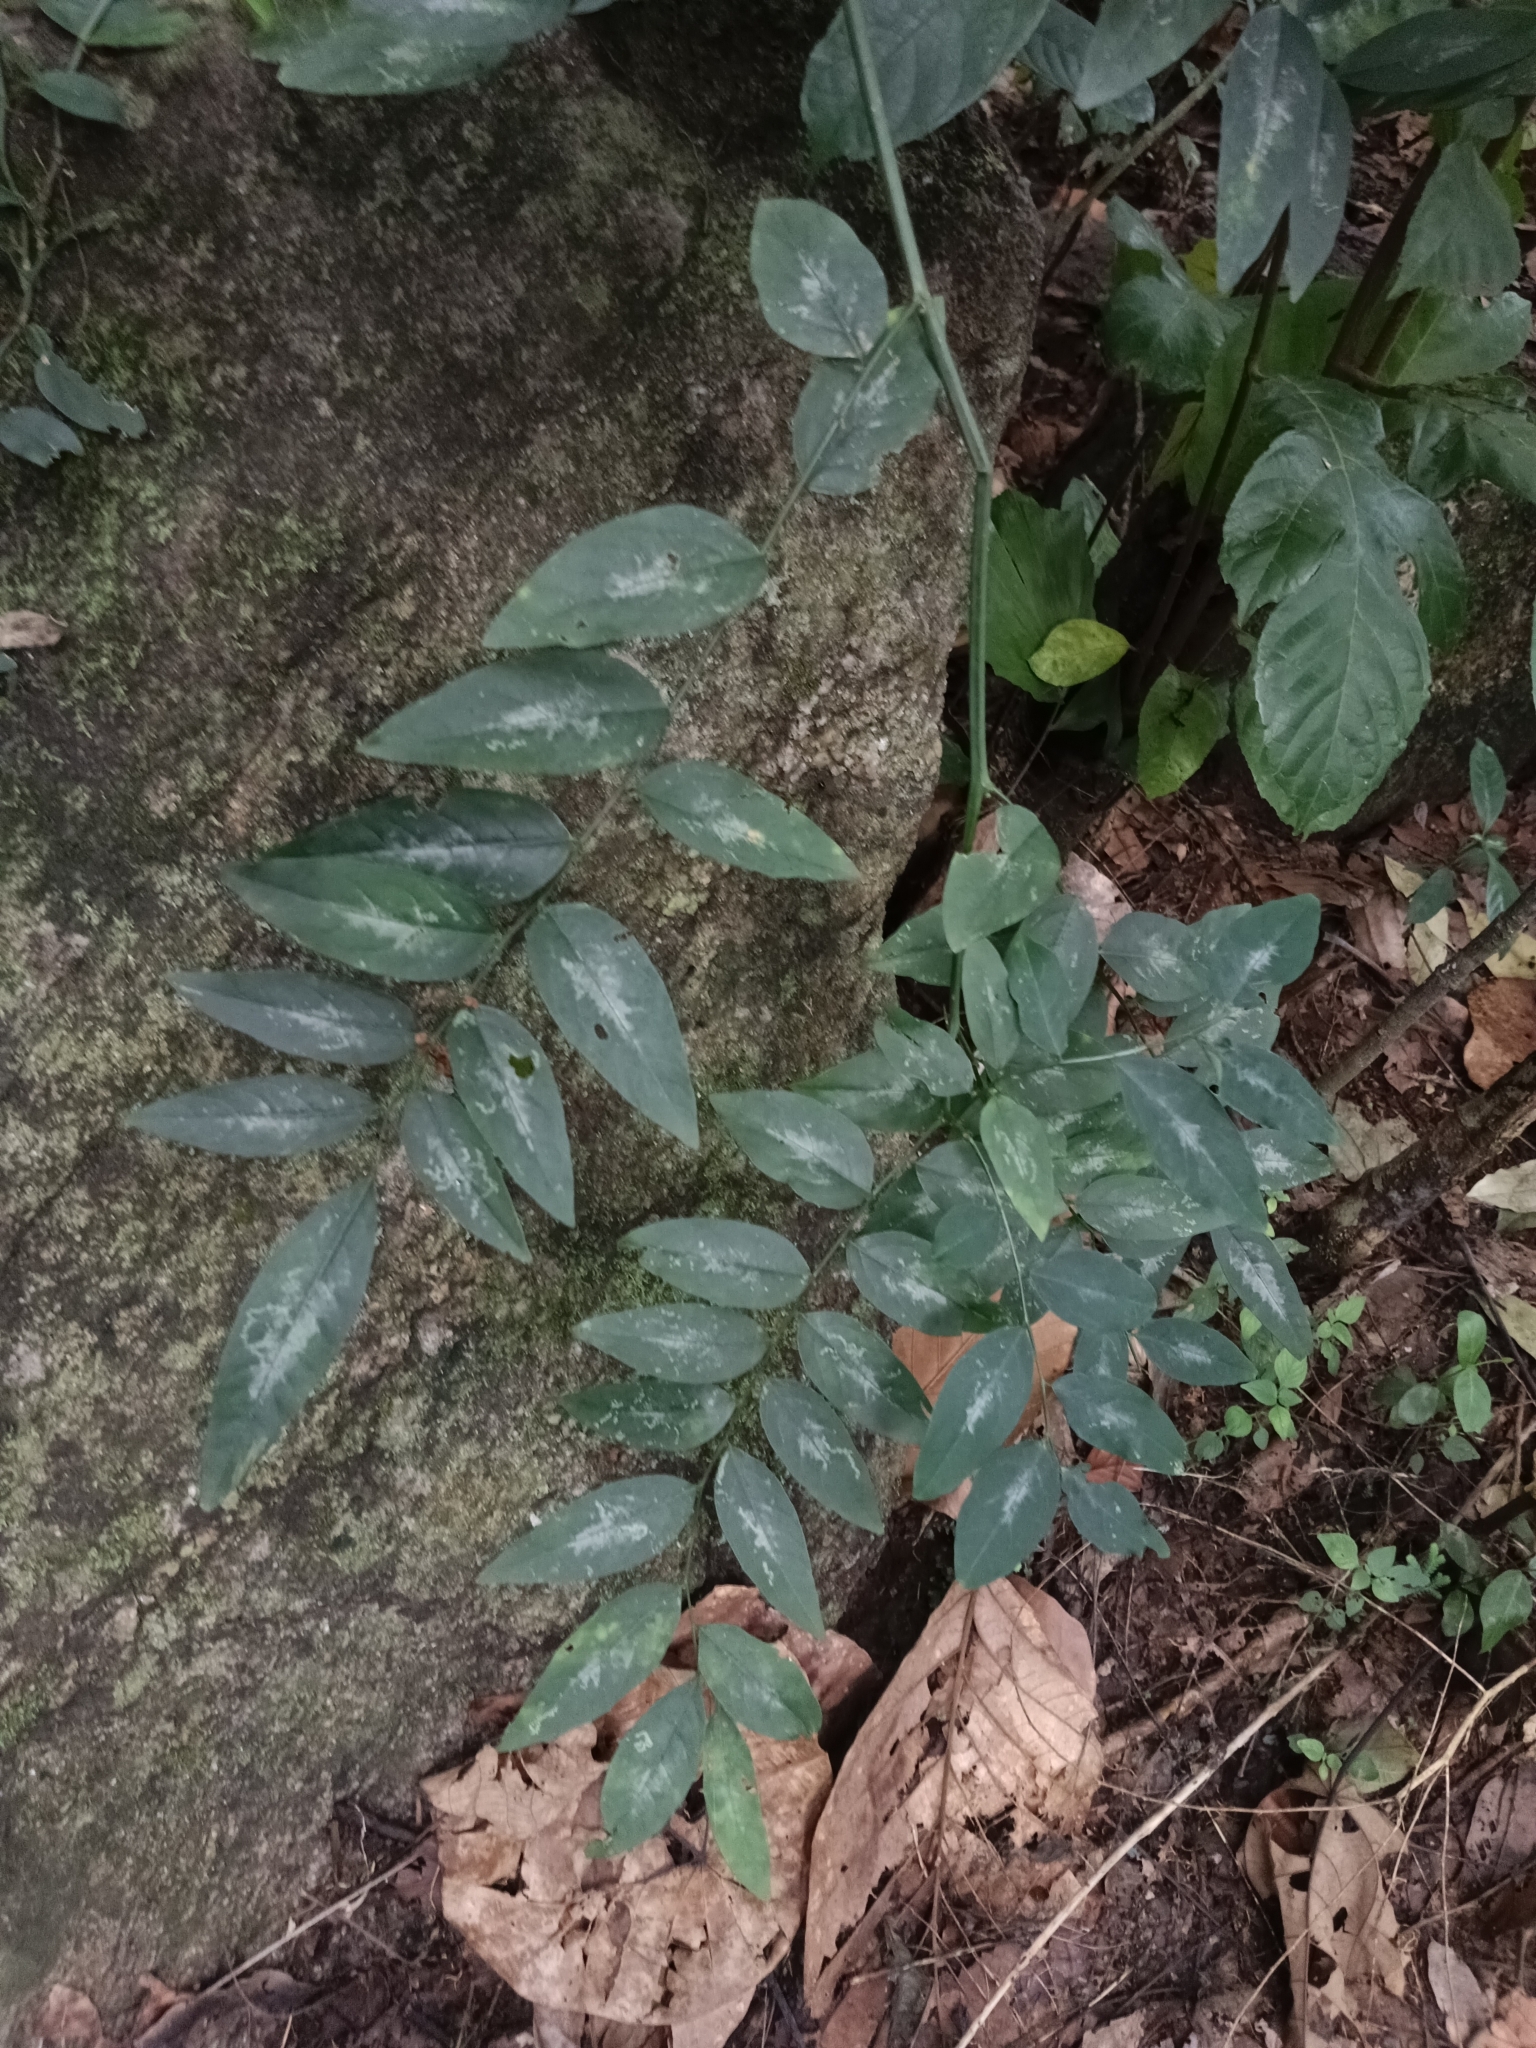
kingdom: Plantae
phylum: Tracheophyta
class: Magnoliopsida
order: Malpighiales
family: Phyllanthaceae
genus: Breynia
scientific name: Breynia androgyna
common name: Star gooseberry
